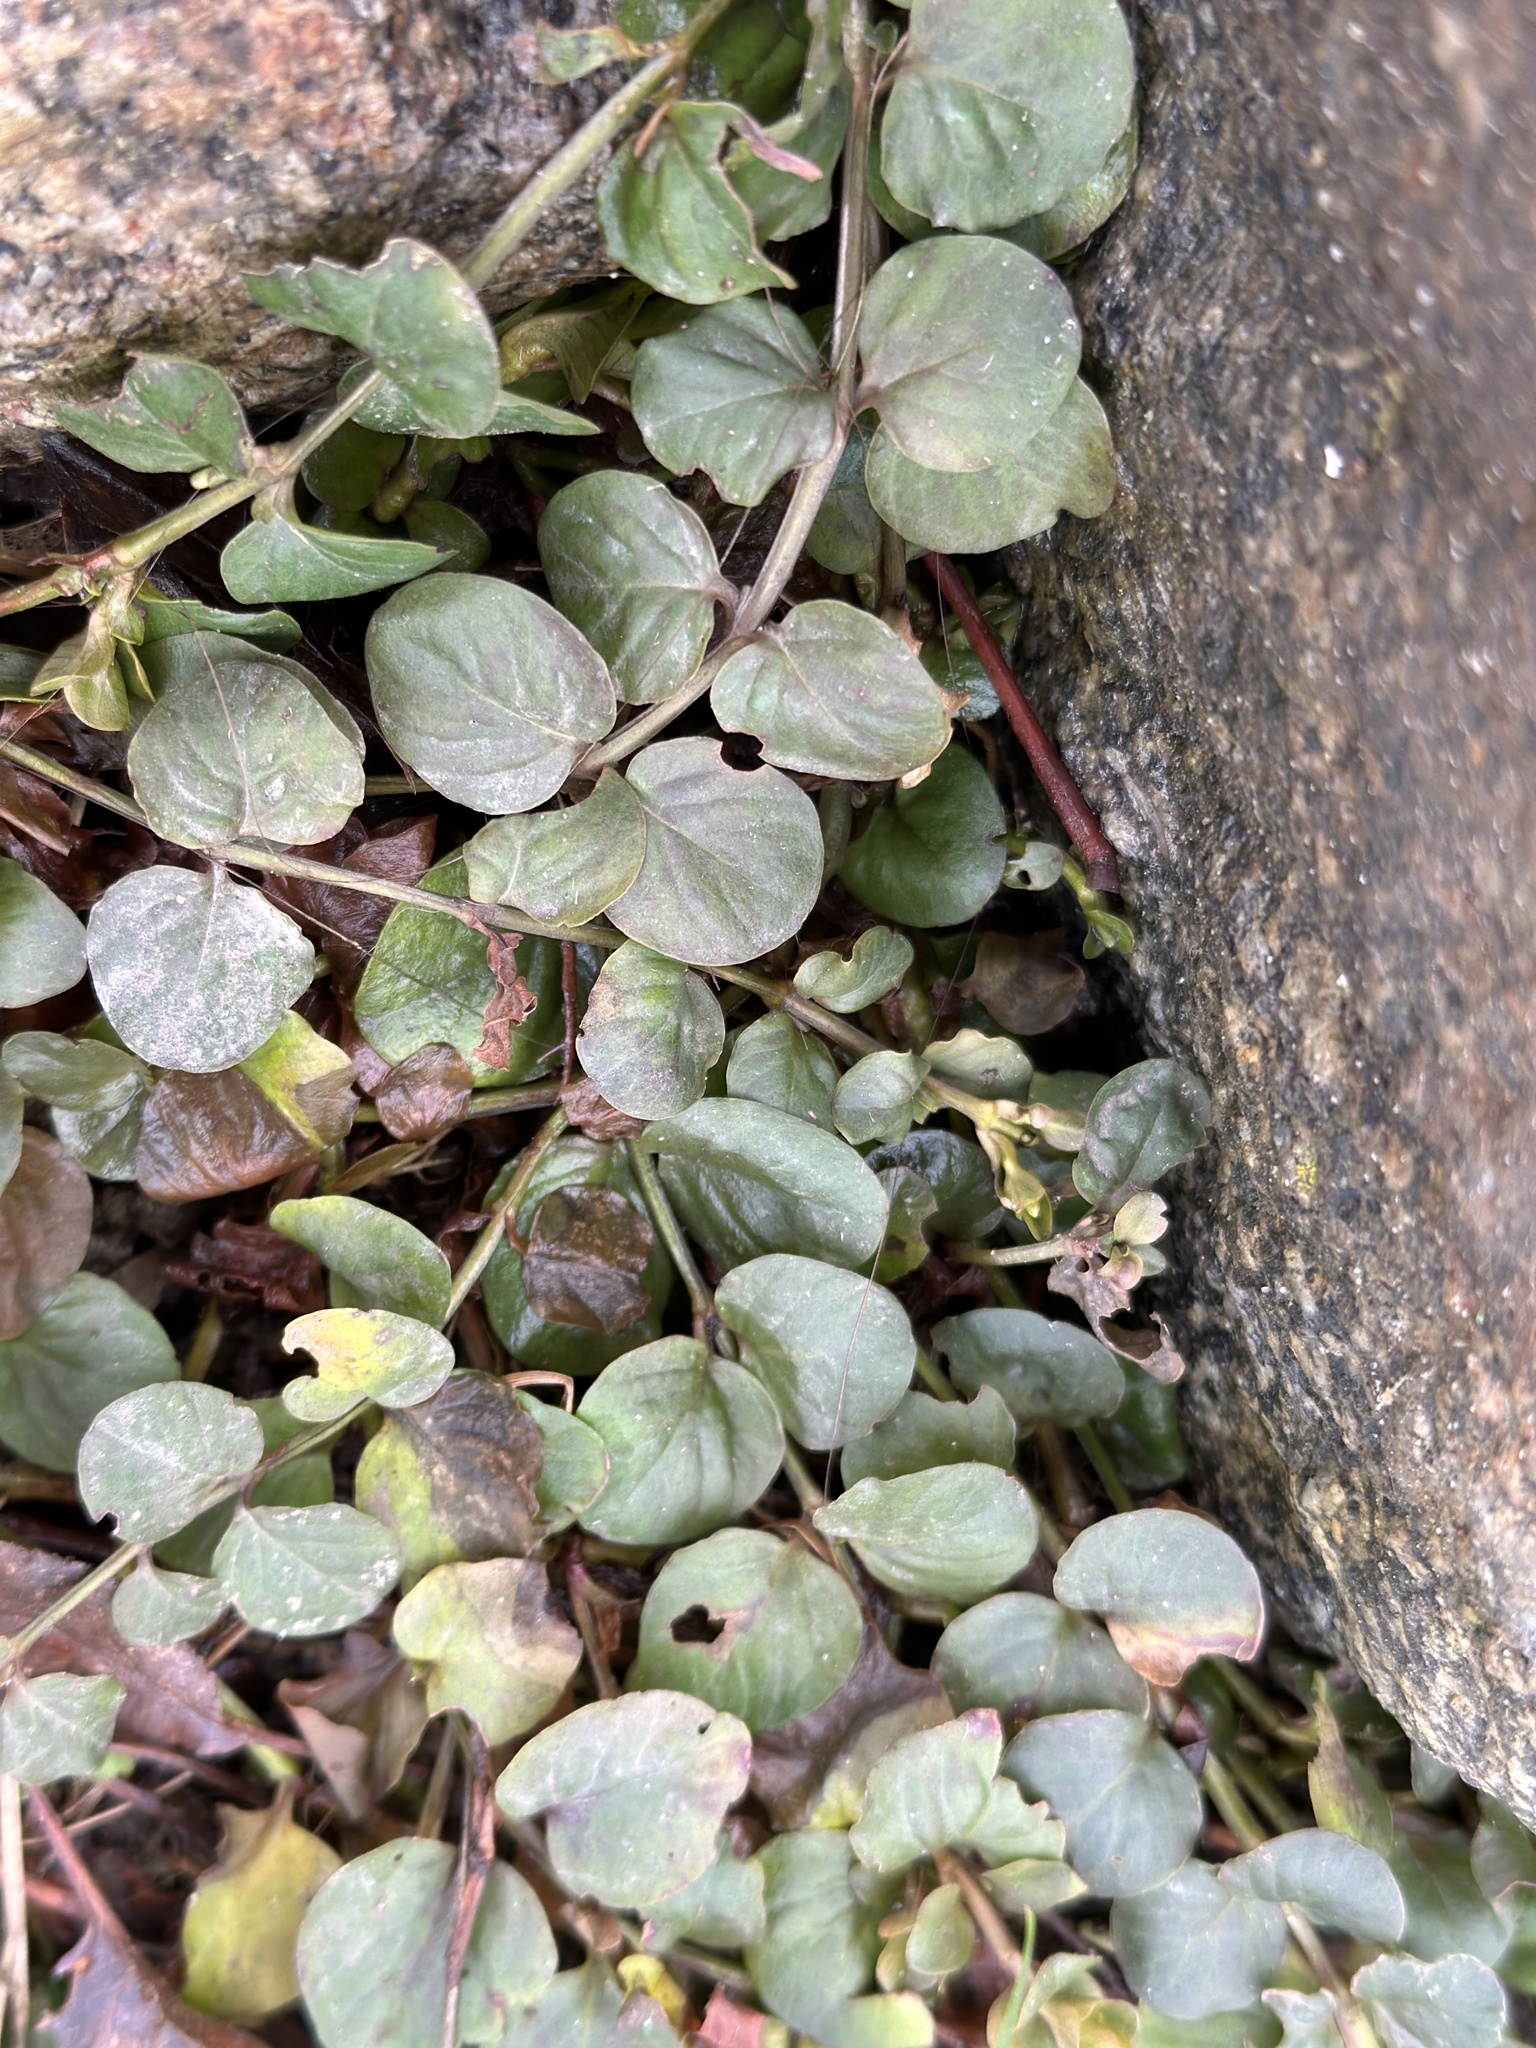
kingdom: Plantae
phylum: Tracheophyta
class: Magnoliopsida
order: Ericales
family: Primulaceae
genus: Lysimachia
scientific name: Lysimachia nummularia
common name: Moneywort
